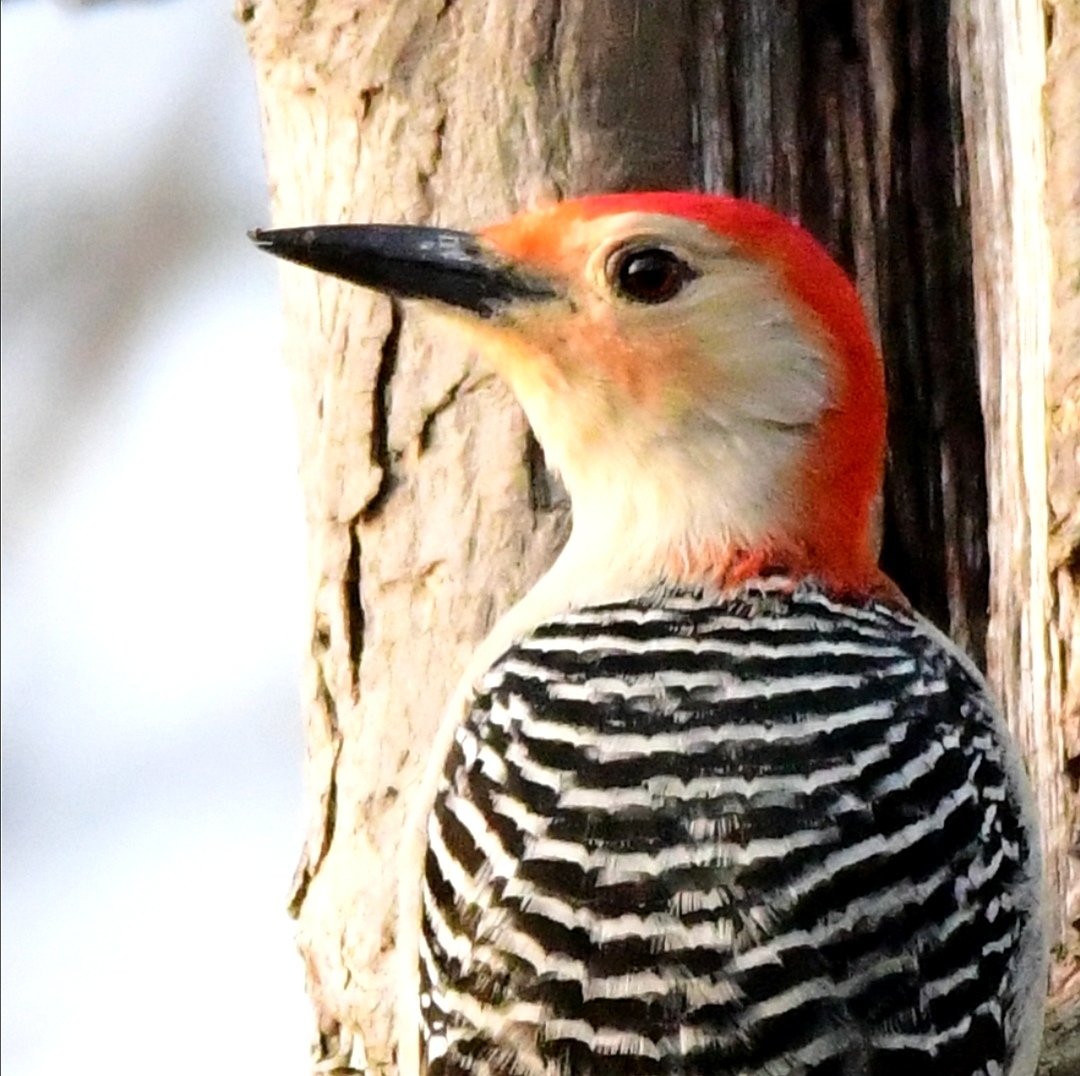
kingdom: Animalia
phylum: Chordata
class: Aves
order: Piciformes
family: Picidae
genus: Melanerpes
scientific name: Melanerpes carolinus
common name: Red-bellied woodpecker
